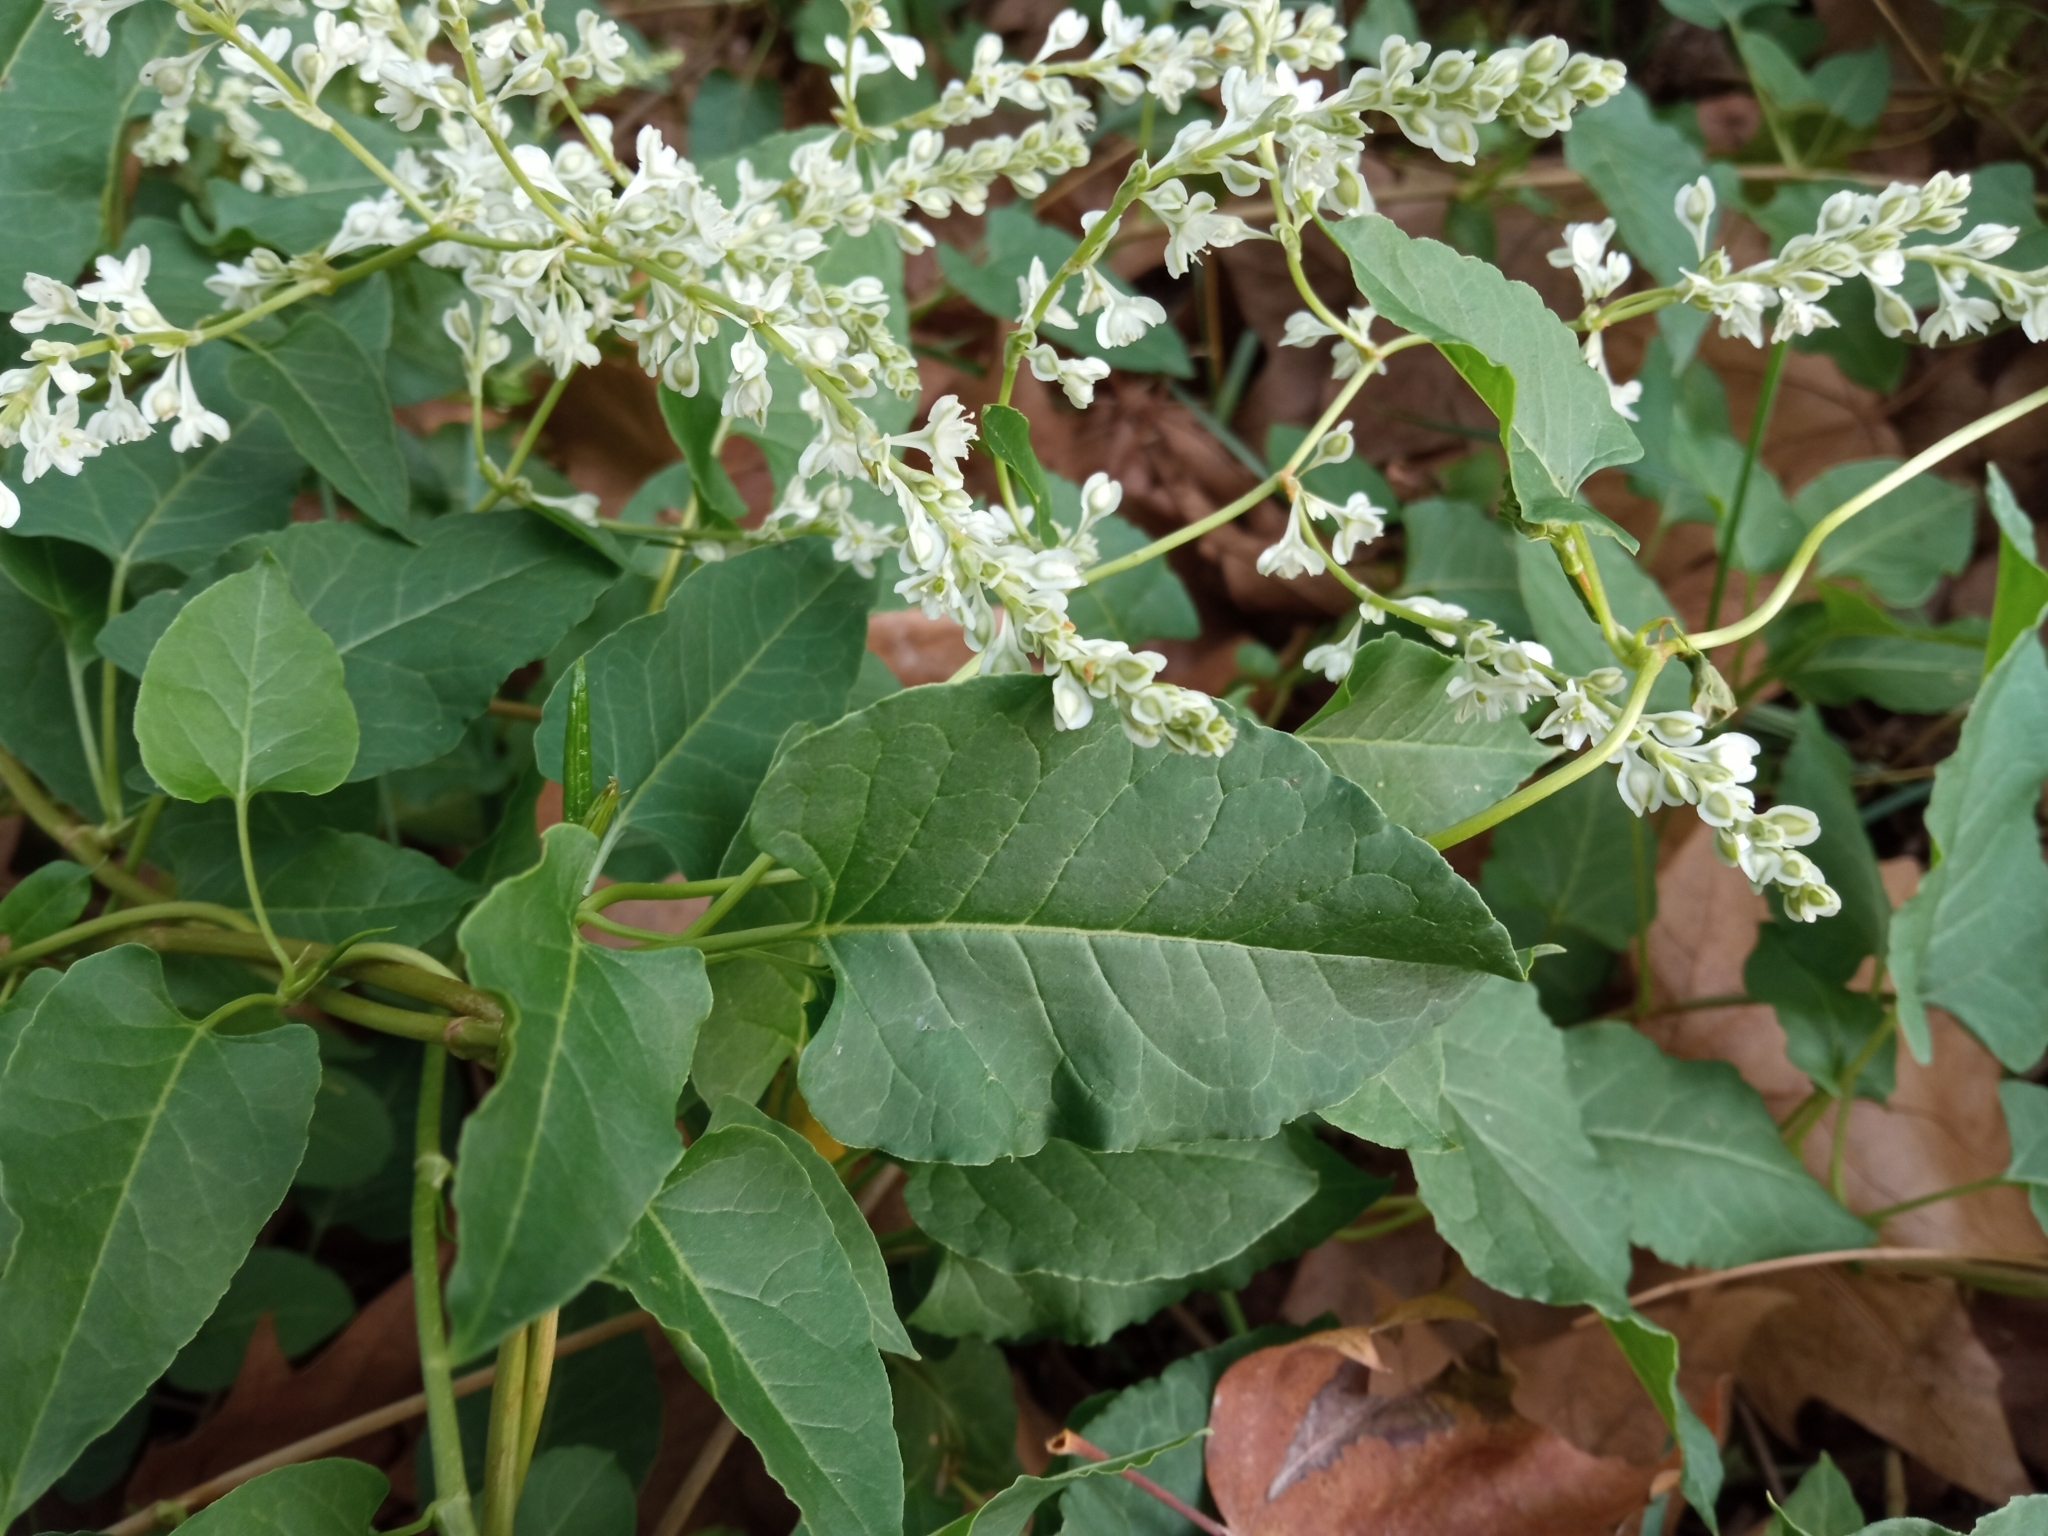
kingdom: Plantae
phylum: Tracheophyta
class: Magnoliopsida
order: Caryophyllales
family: Polygonaceae
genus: Fallopia
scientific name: Fallopia baldschuanica
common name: Russian-vine
